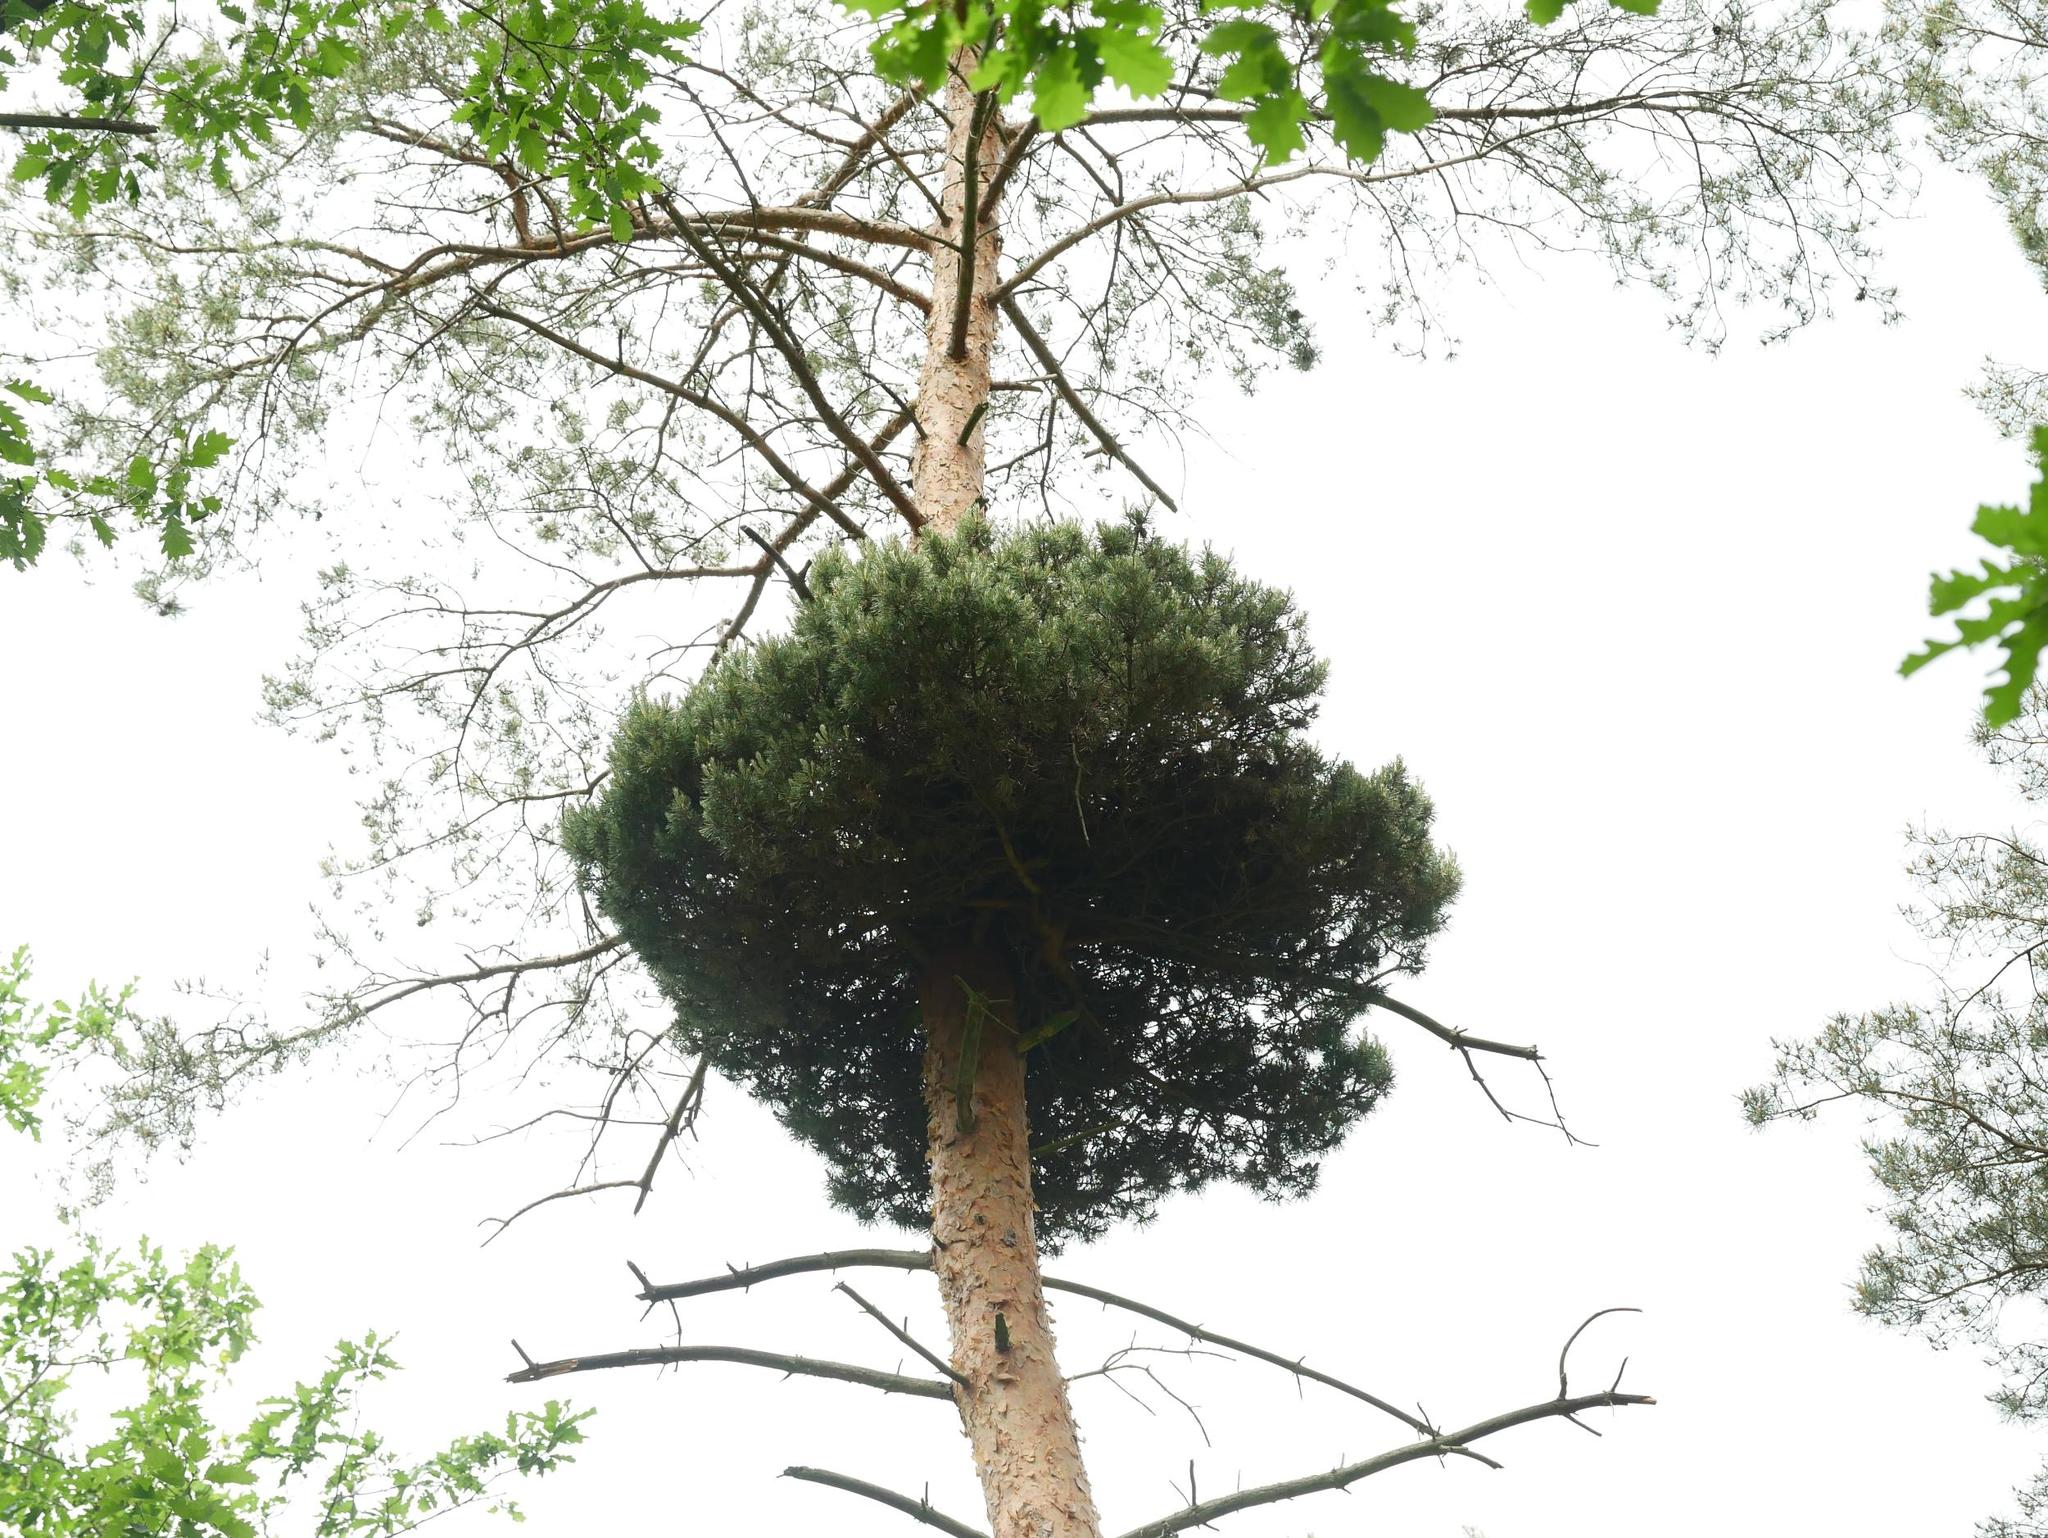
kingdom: Bacteria
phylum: Firmicutes
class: Bacilli
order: Acholeplasmatales
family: Acholeplasmataceae
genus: Phytoplasma
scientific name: Phytoplasma pini
